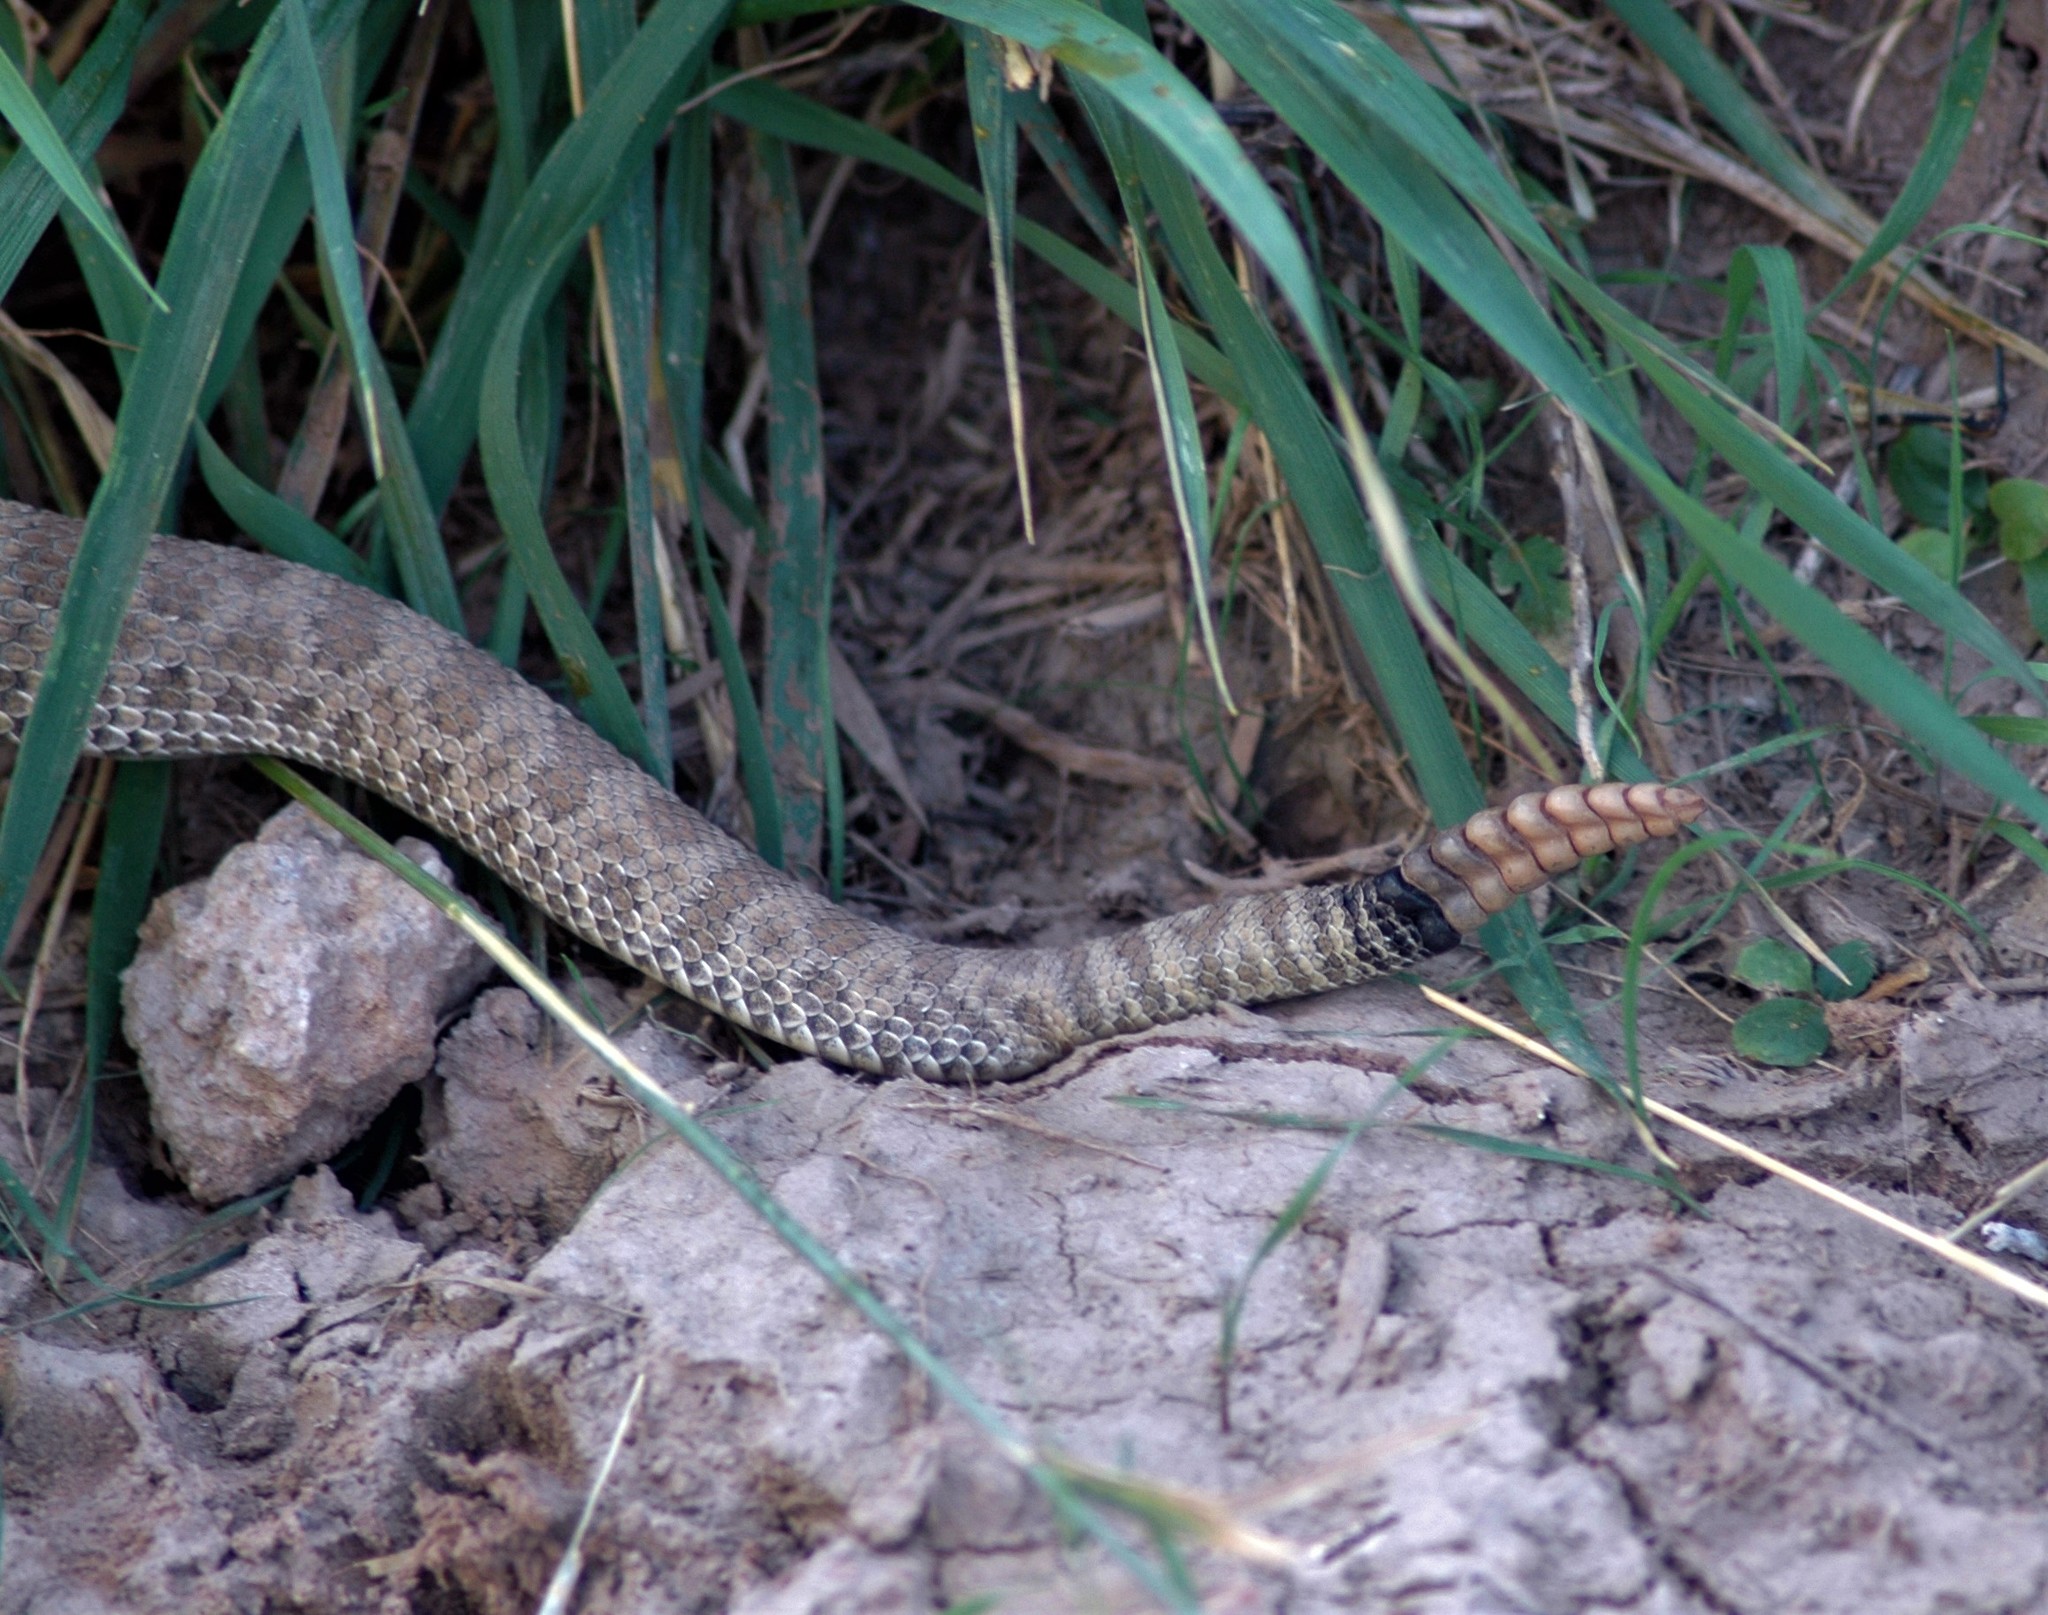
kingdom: Animalia
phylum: Chordata
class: Squamata
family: Viperidae
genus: Crotalus
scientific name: Crotalus viridis
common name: Prairie rattlesnake
